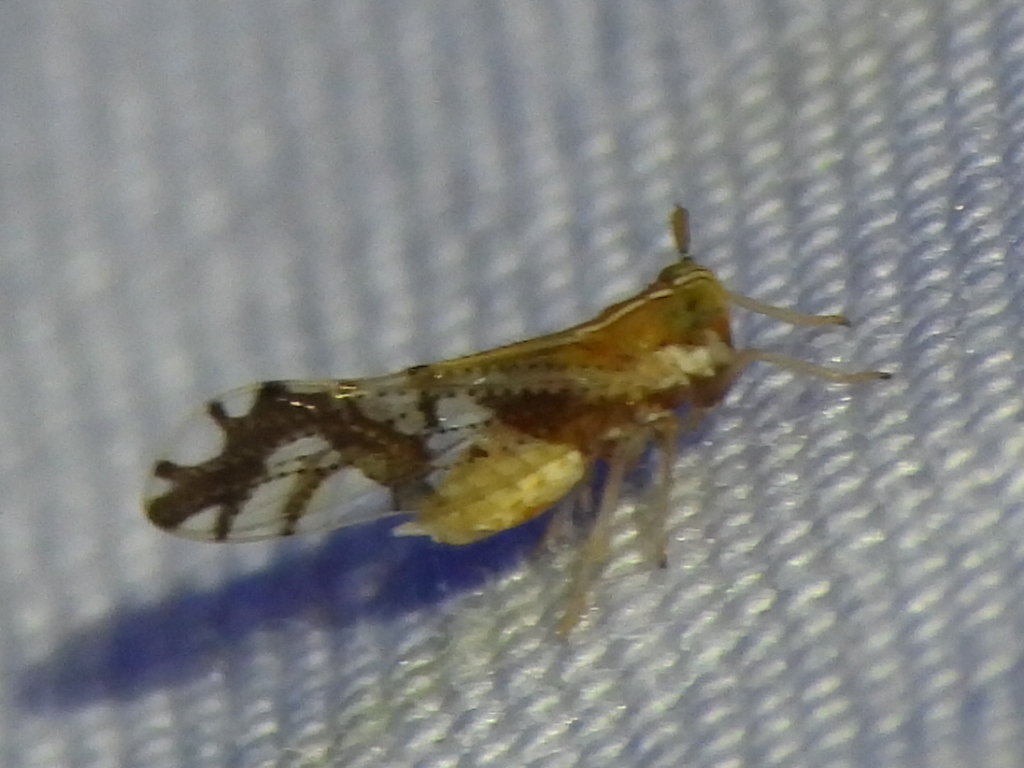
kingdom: Animalia
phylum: Arthropoda
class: Insecta
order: Hemiptera
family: Delphacidae
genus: Liburniella
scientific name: Liburniella ornata
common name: Ornate planthopper
